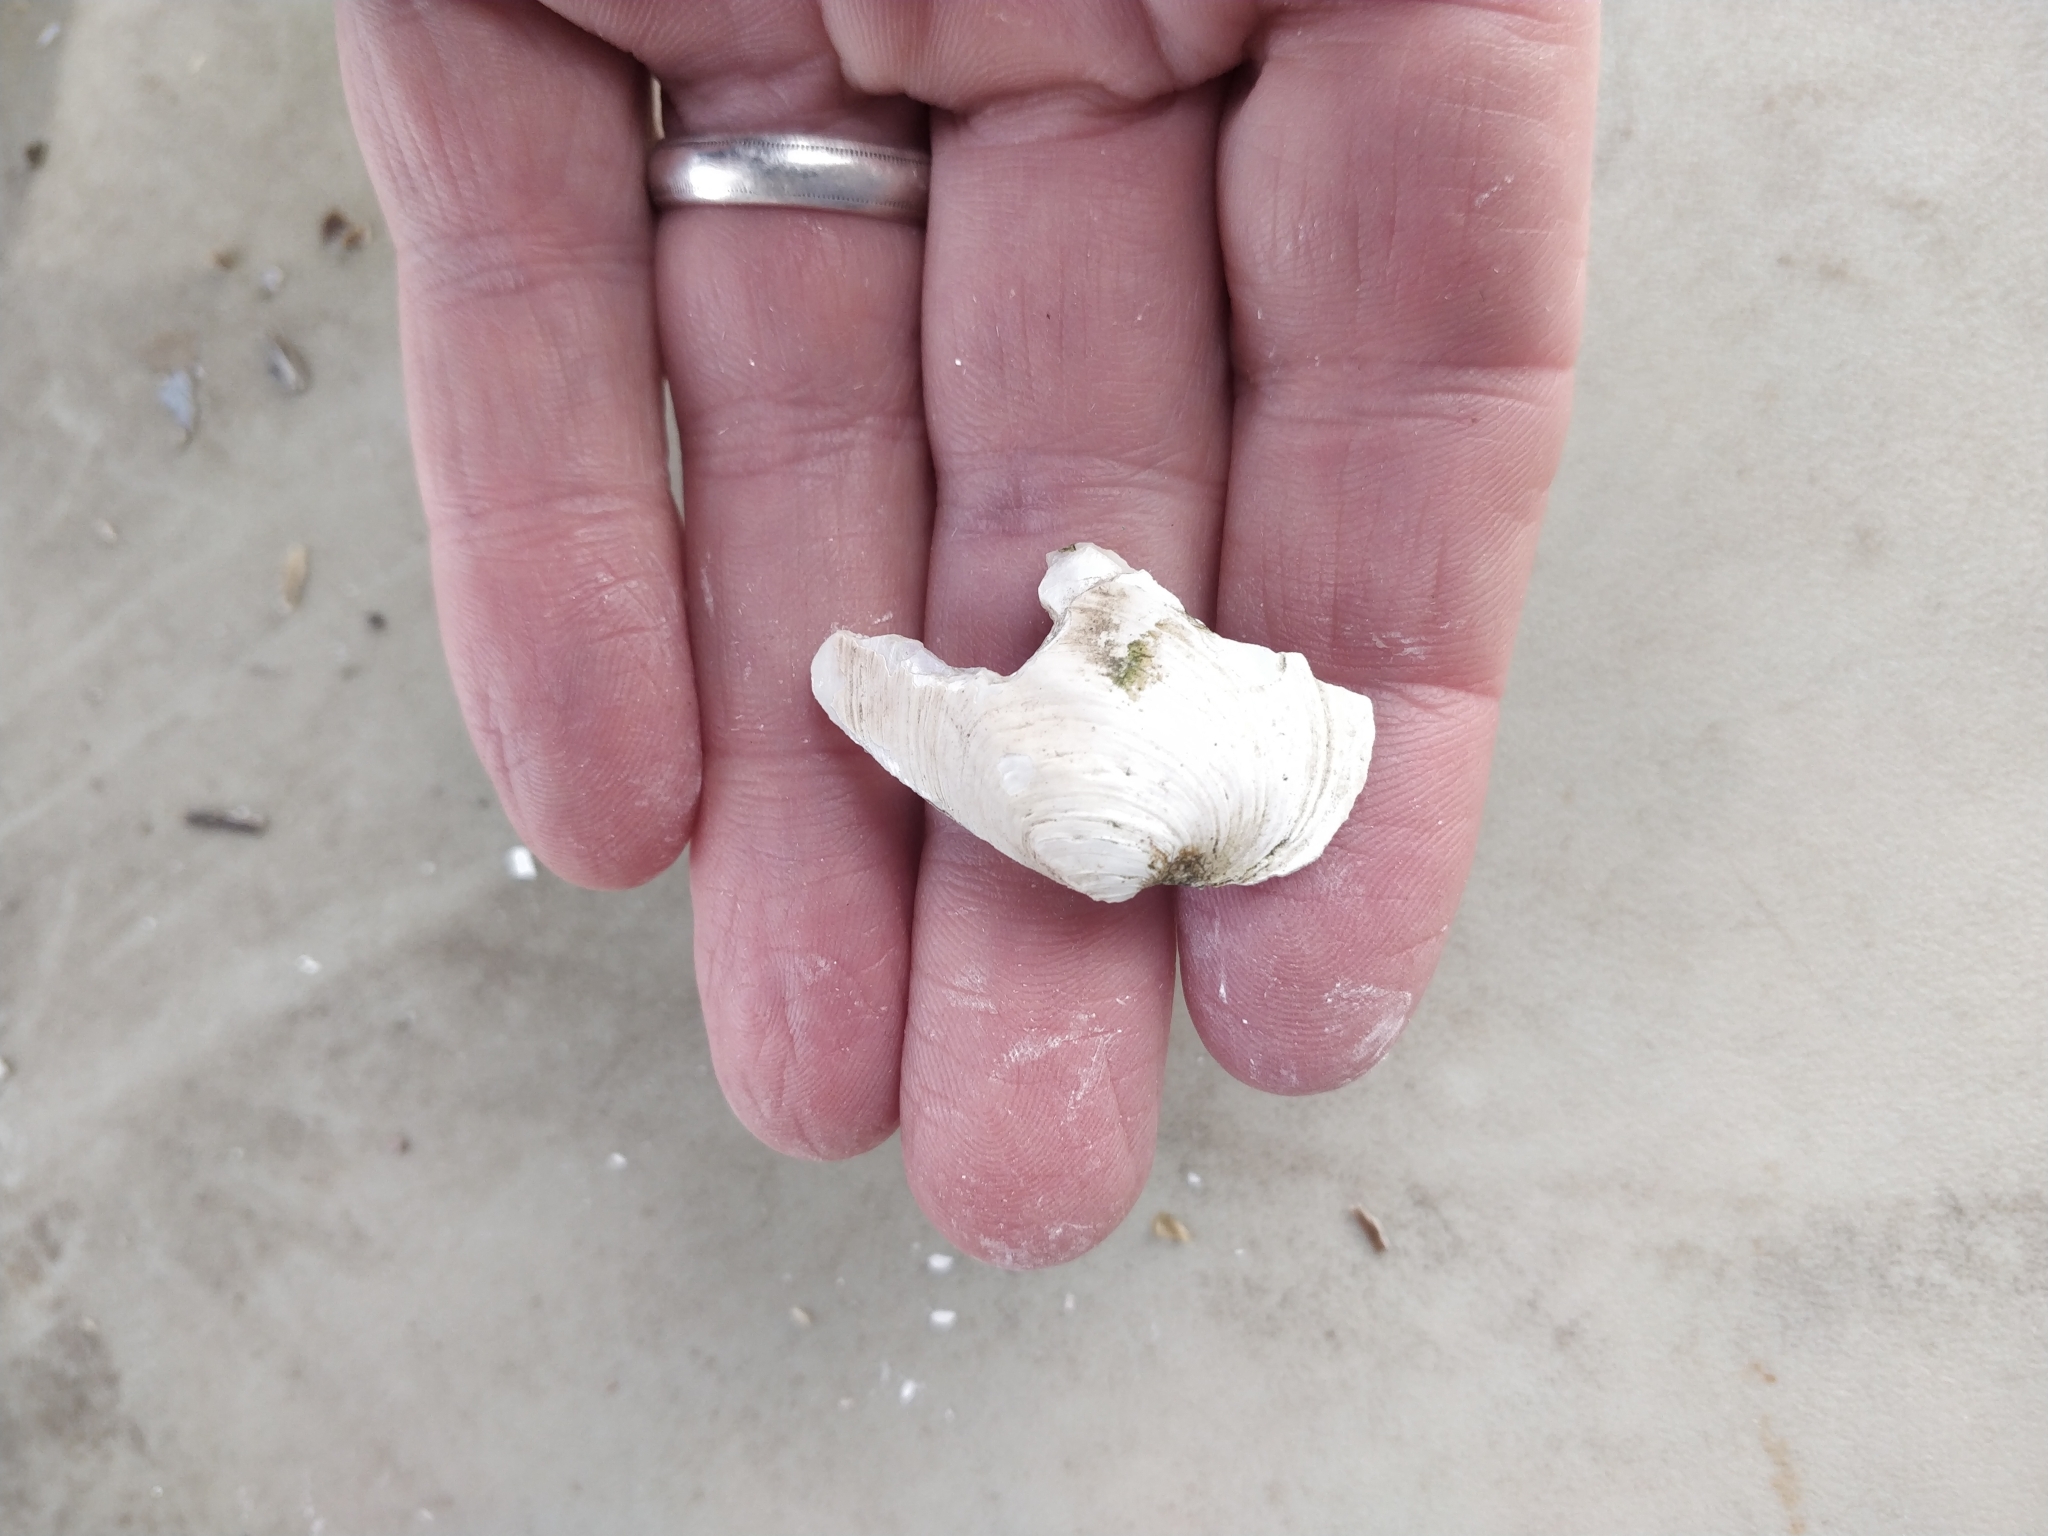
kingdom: Animalia
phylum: Mollusca
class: Bivalvia
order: Unionida
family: Unionidae
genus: Amblema
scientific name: Amblema plicata
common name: Threeridge
